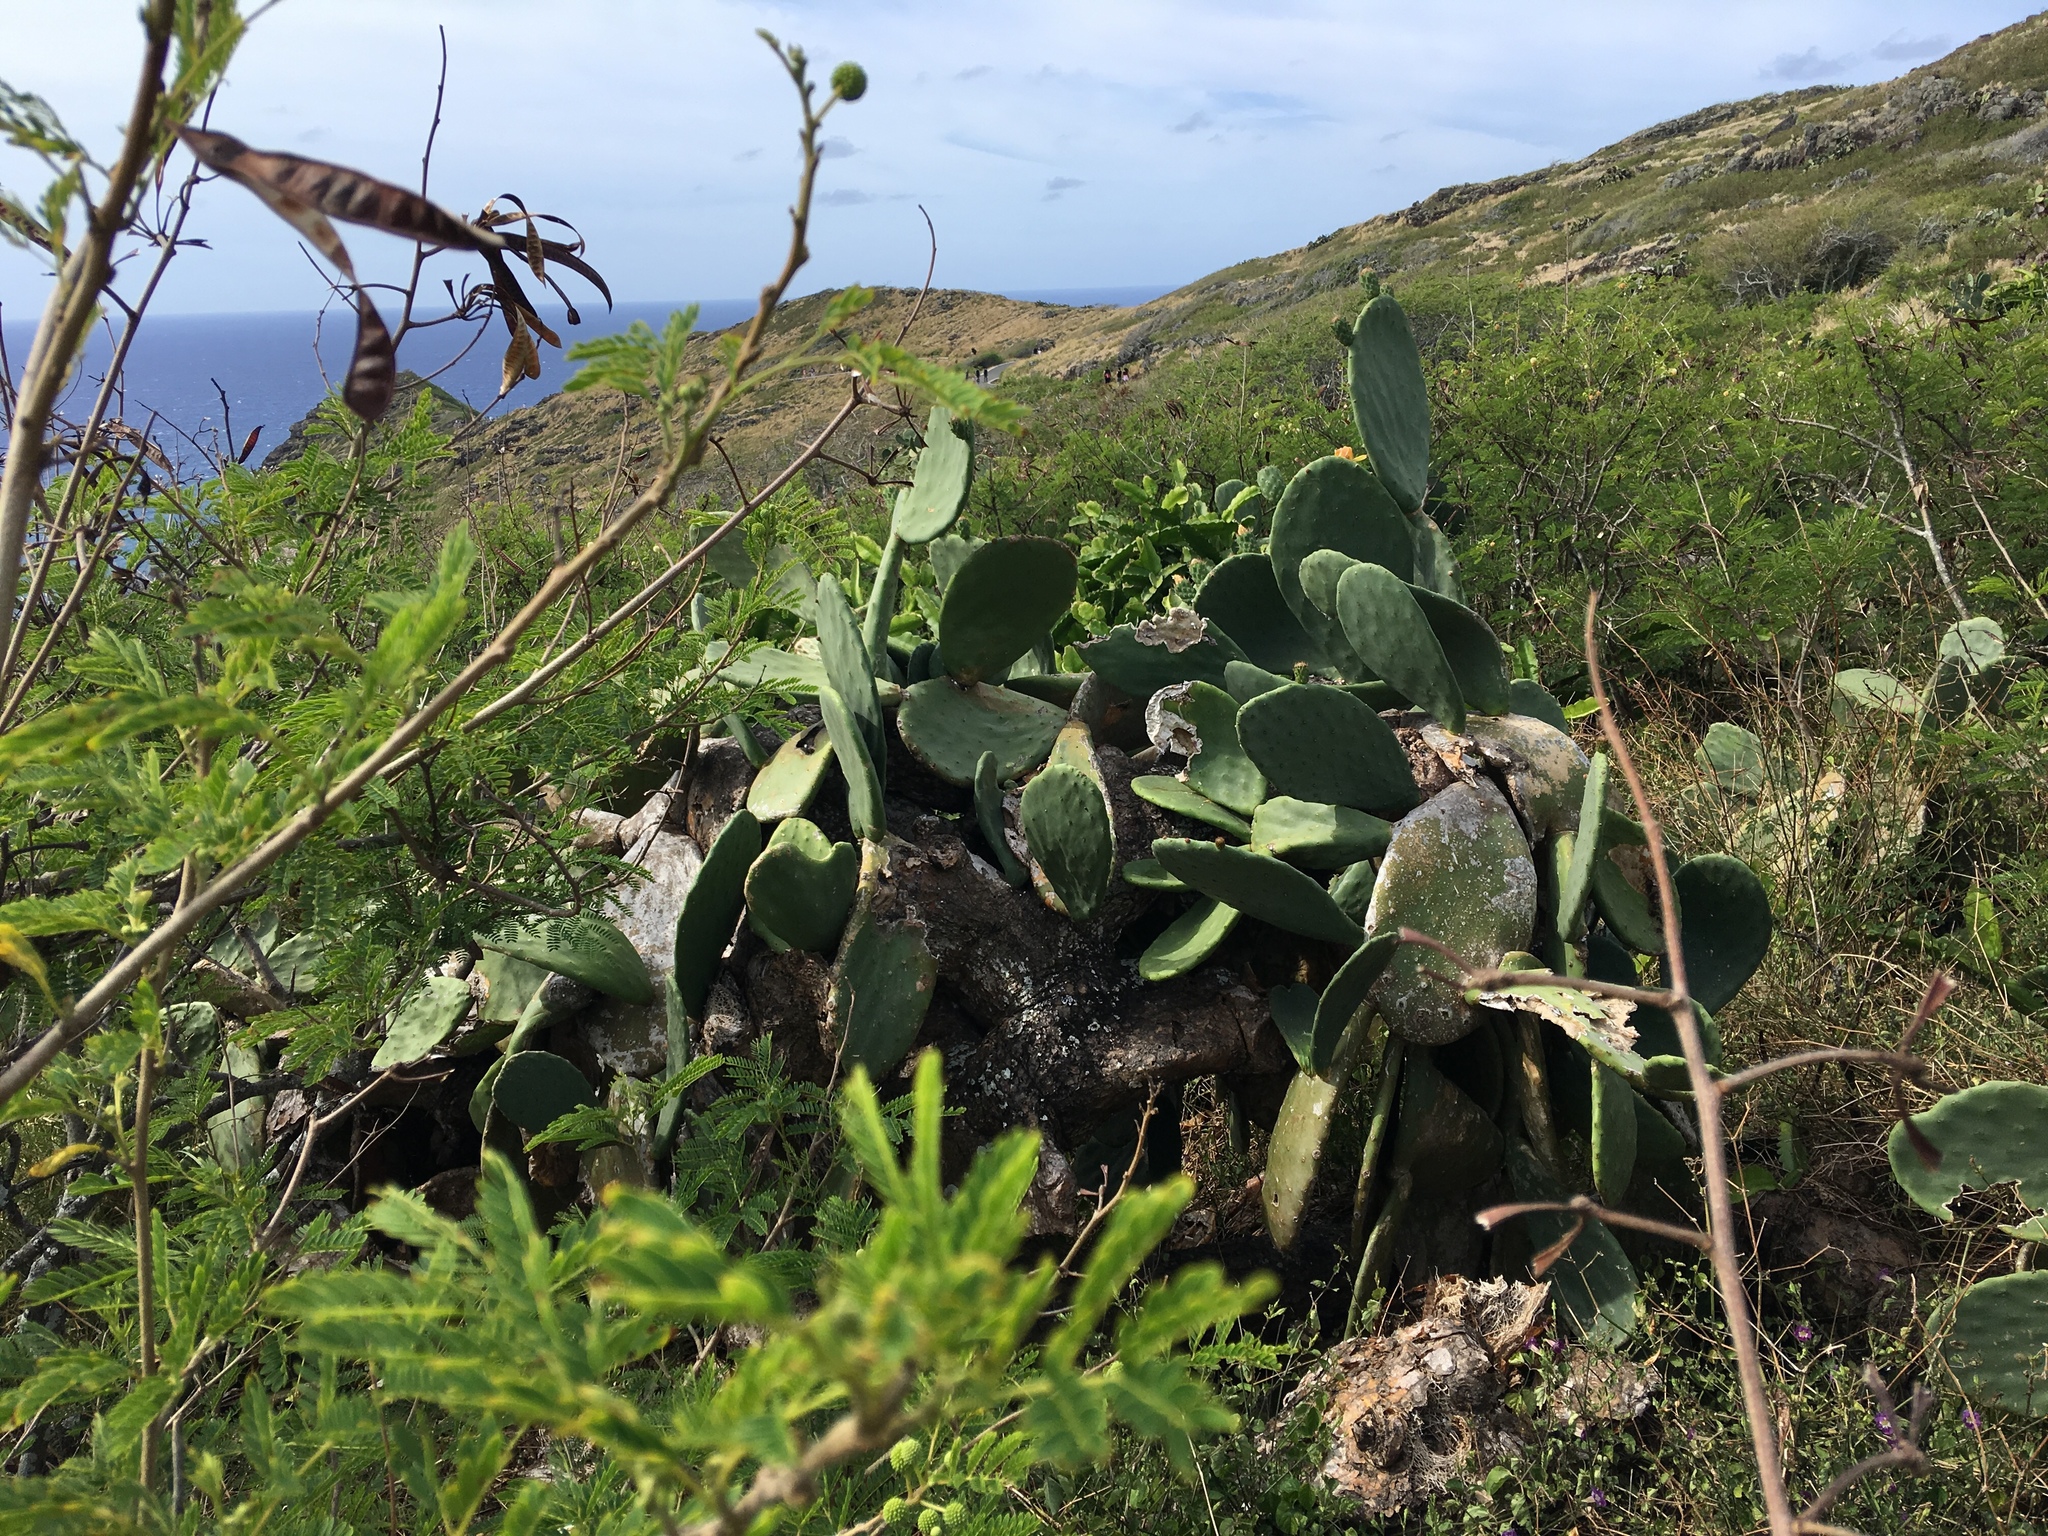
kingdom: Plantae
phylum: Tracheophyta
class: Magnoliopsida
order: Caryophyllales
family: Cactaceae
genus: Opuntia
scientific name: Opuntia ficus-indica
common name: Barbary fig
